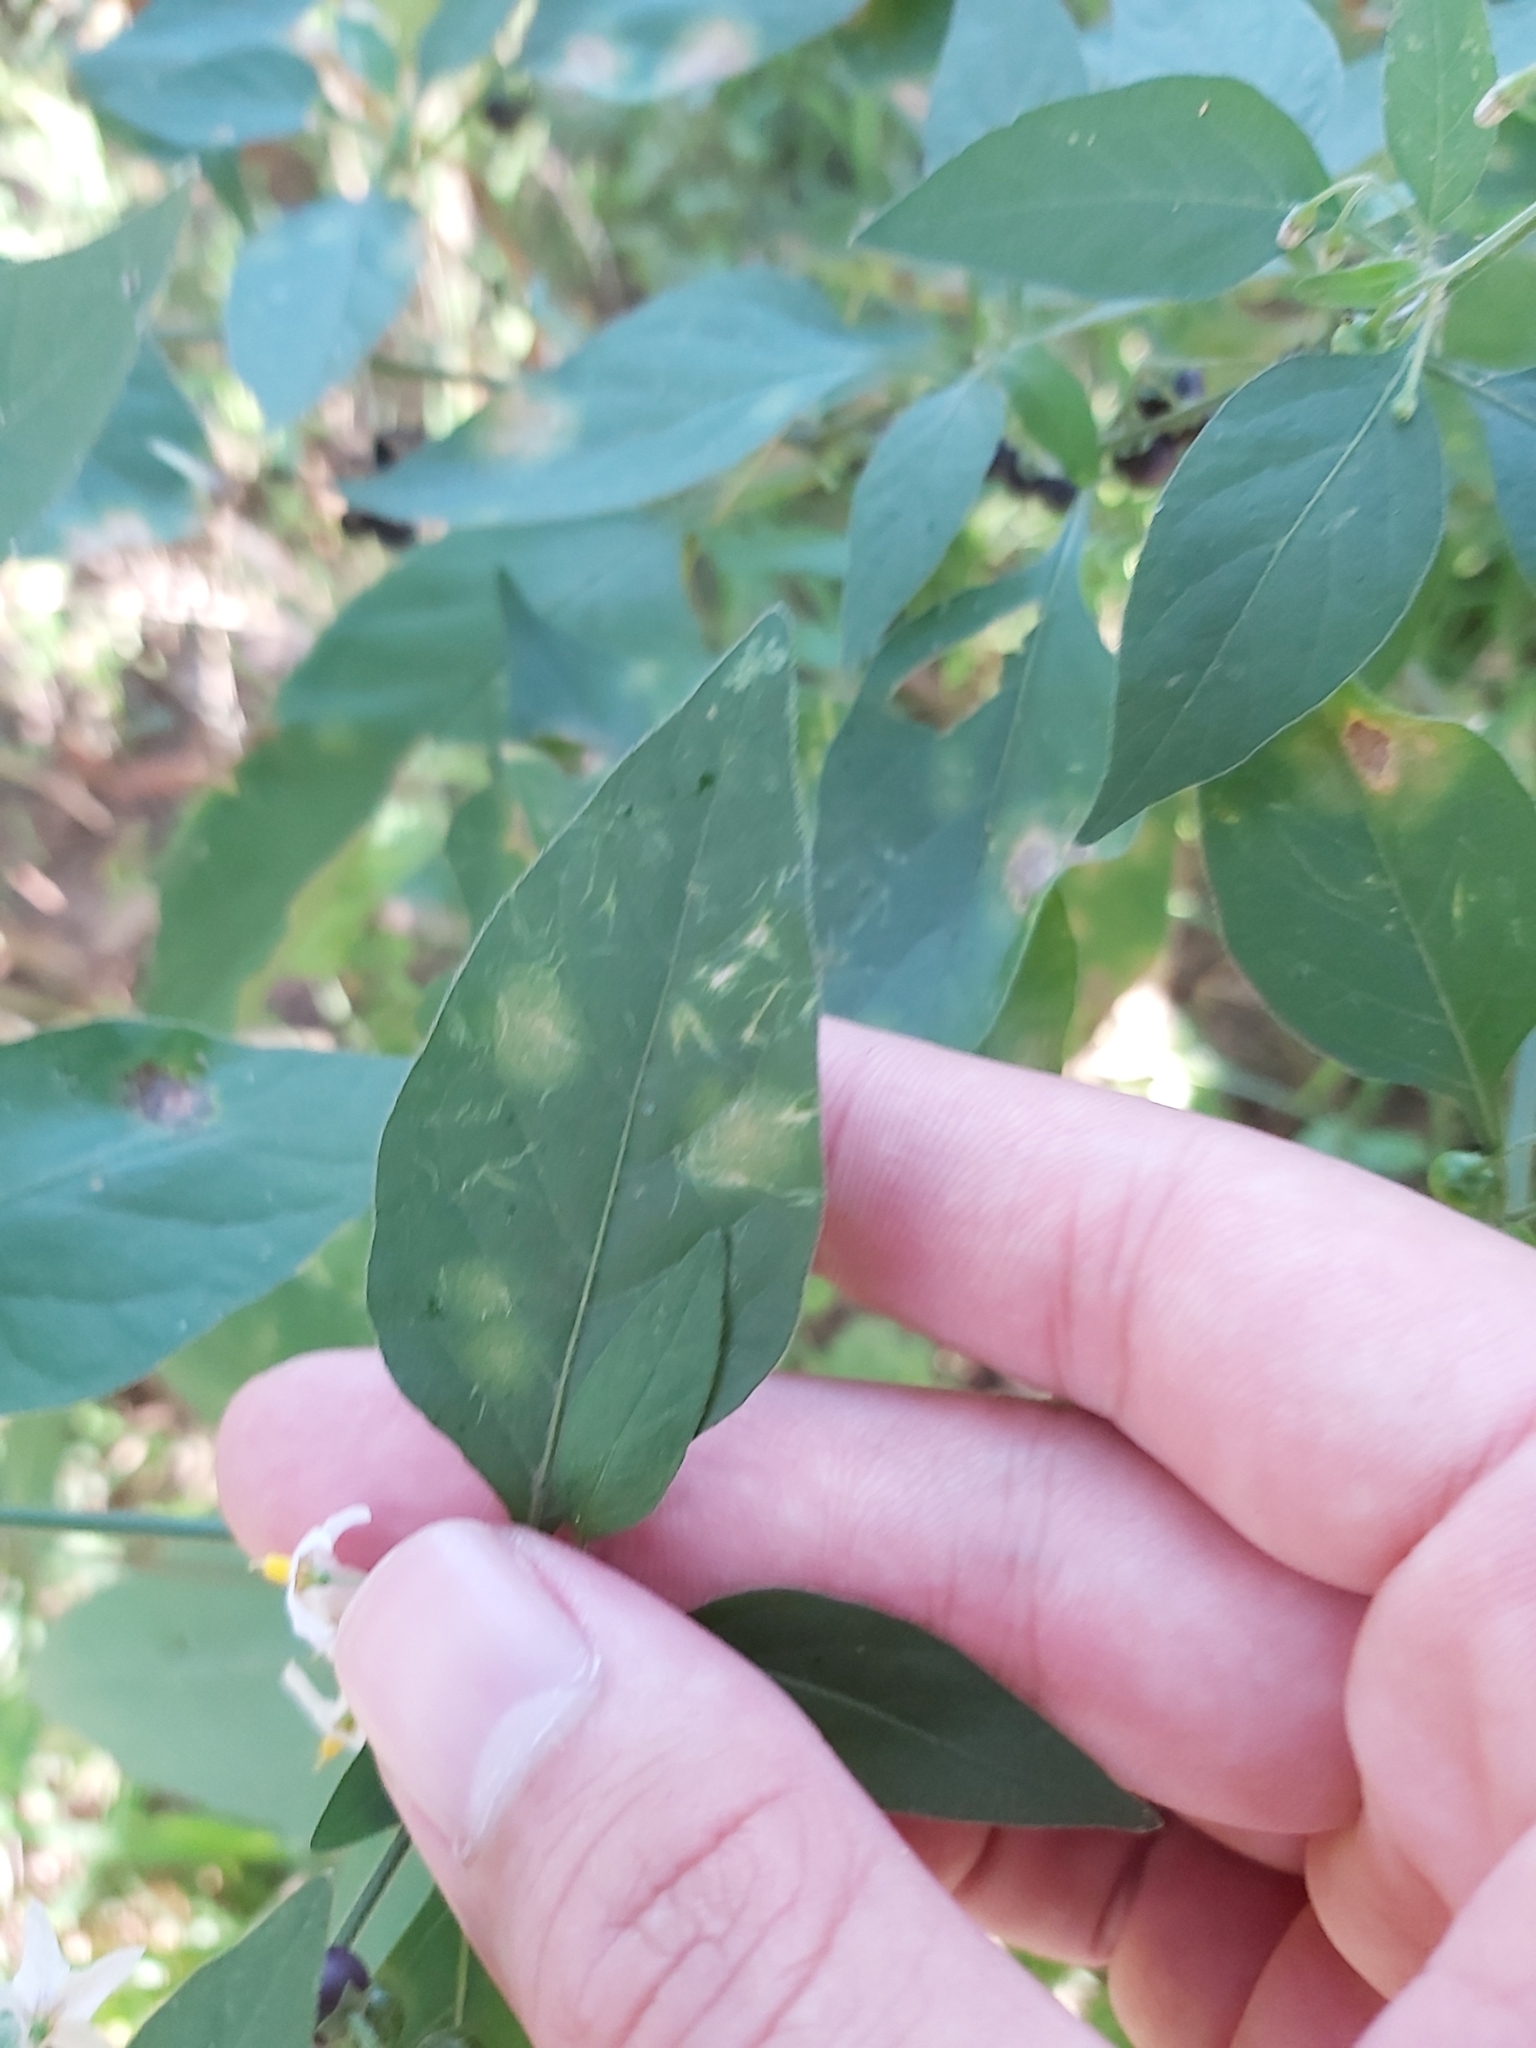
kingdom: Plantae
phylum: Tracheophyta
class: Magnoliopsida
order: Solanales
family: Solanaceae
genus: Solanum
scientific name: Solanum chenopodioides
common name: Tall nightshade
